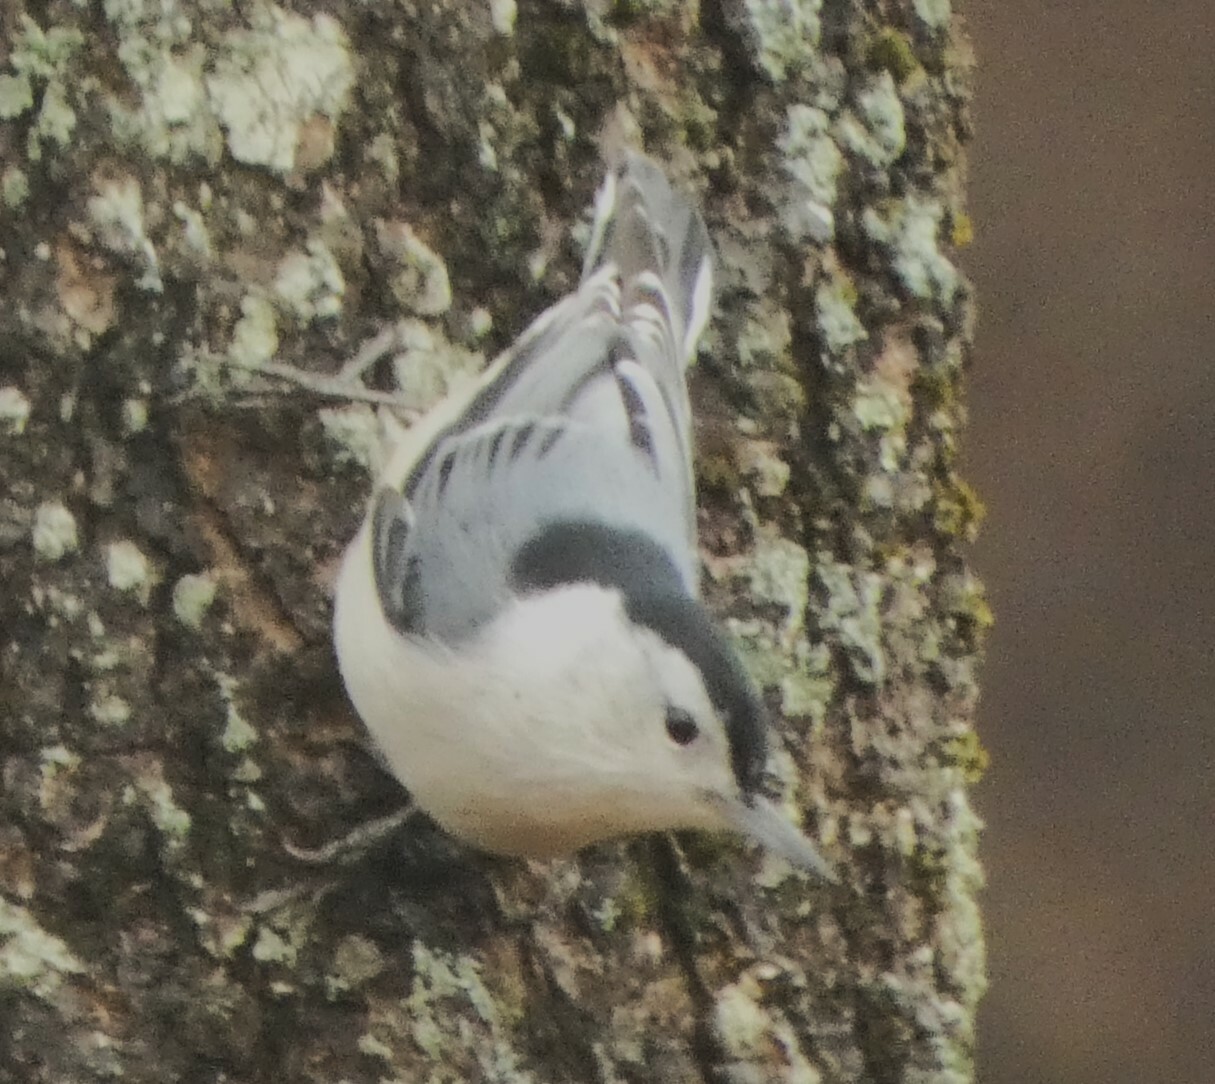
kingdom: Animalia
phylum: Chordata
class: Aves
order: Passeriformes
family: Sittidae
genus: Sitta
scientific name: Sitta carolinensis
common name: White-breasted nuthatch
